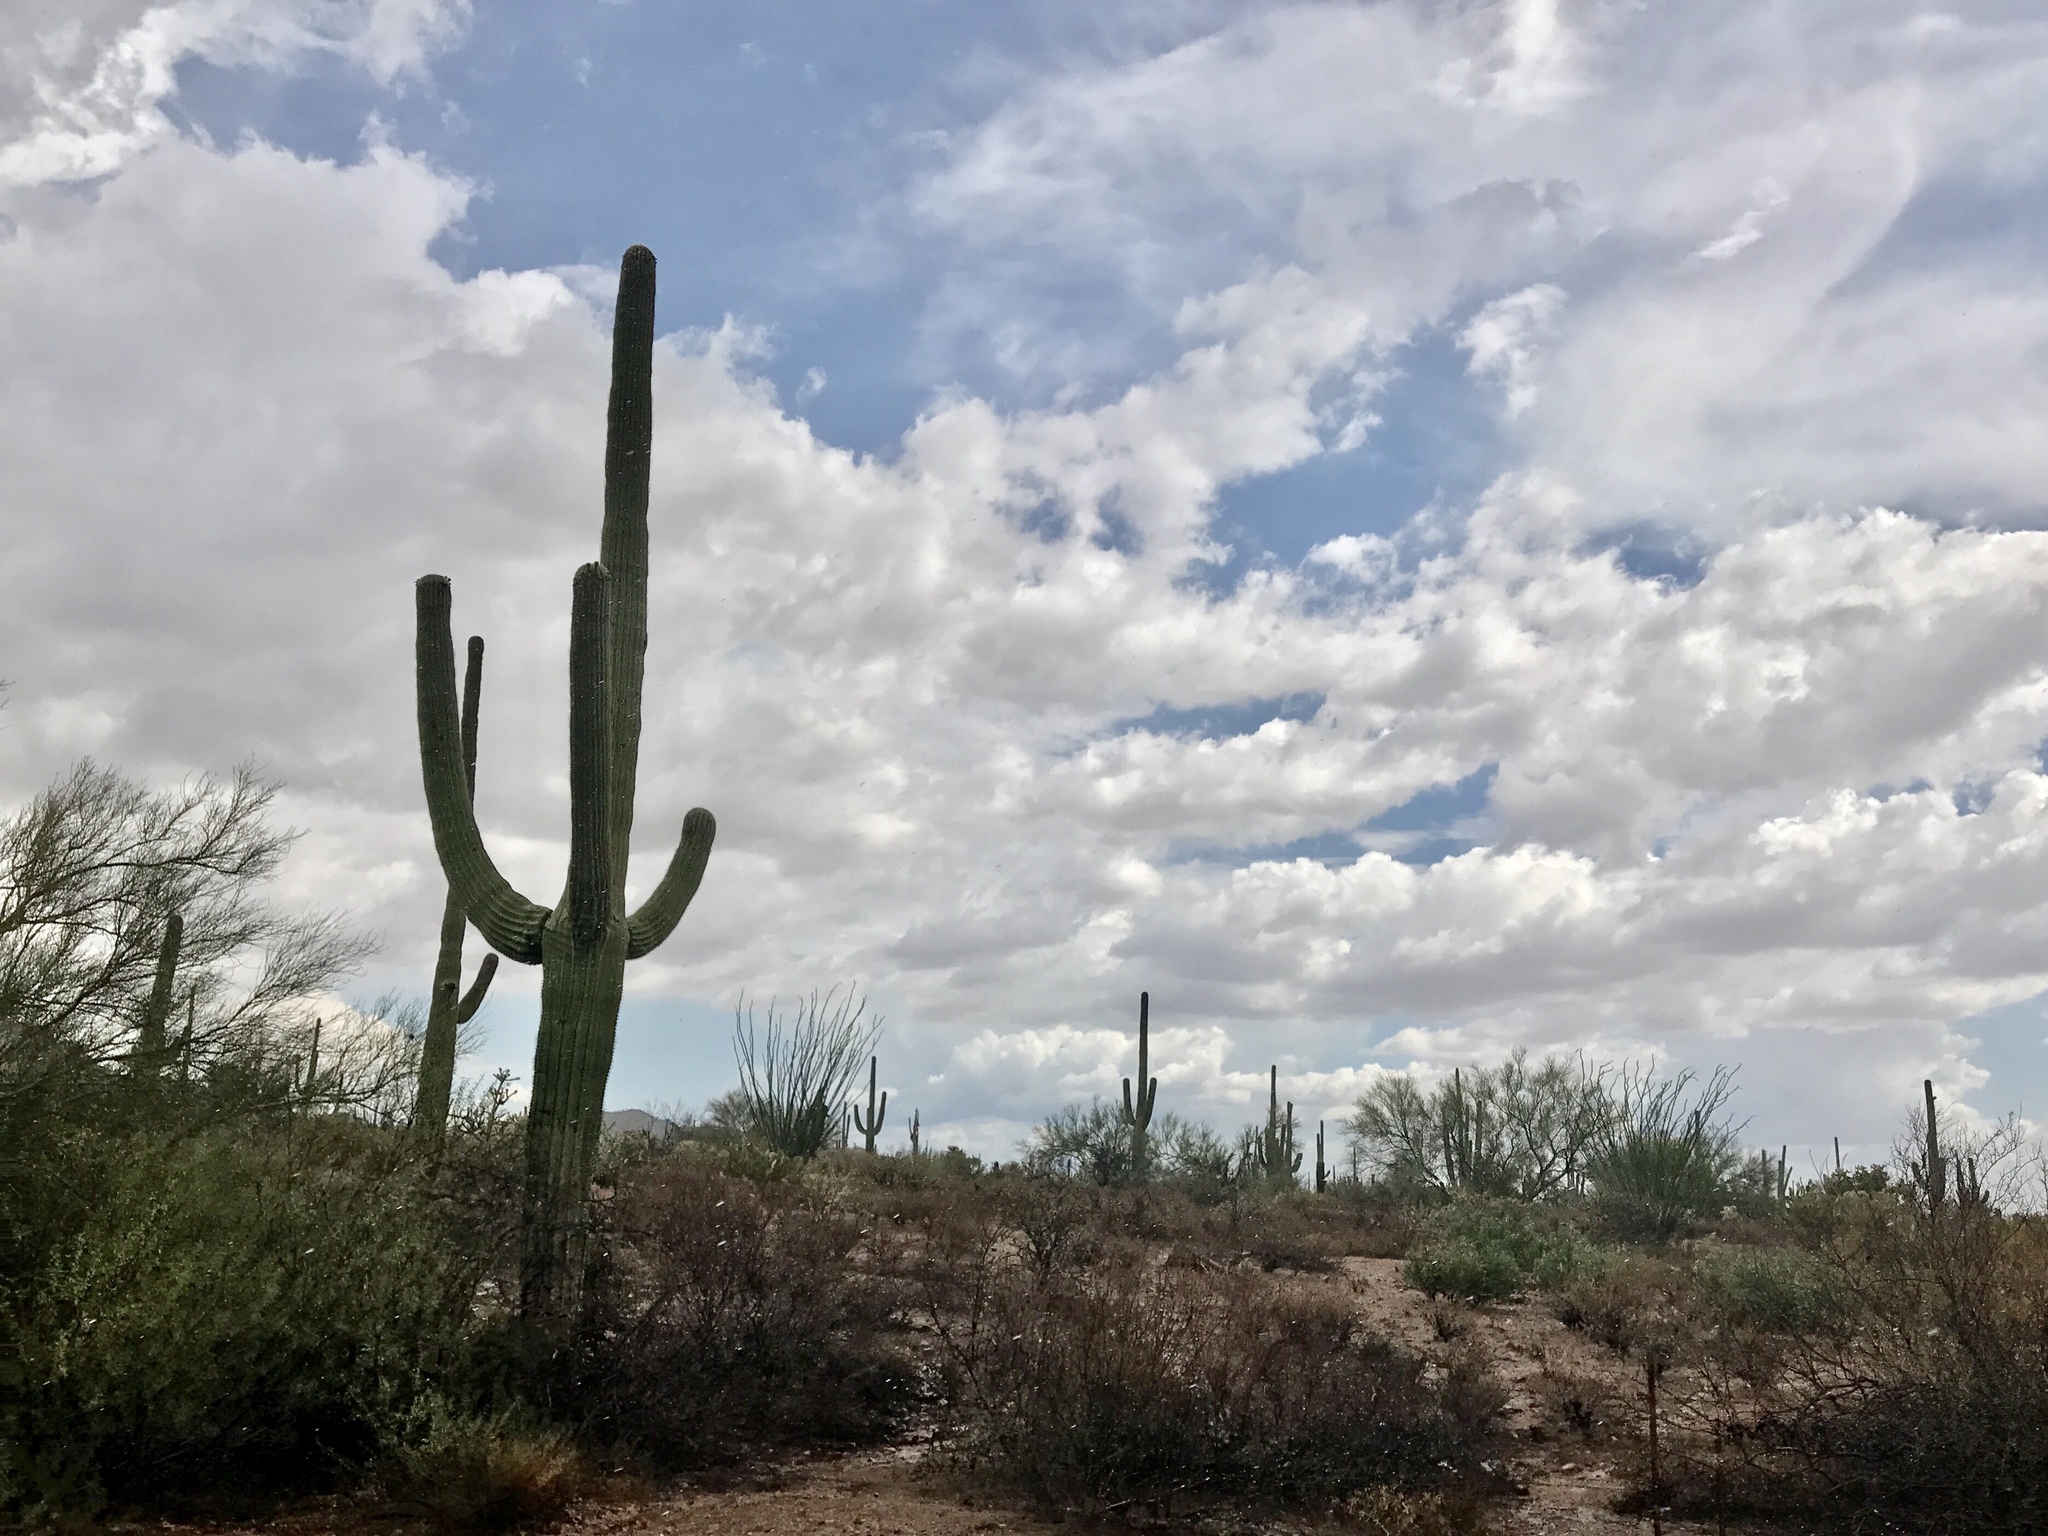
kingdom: Plantae
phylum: Tracheophyta
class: Magnoliopsida
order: Caryophyllales
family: Cactaceae
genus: Carnegiea
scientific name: Carnegiea gigantea
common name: Saguaro
